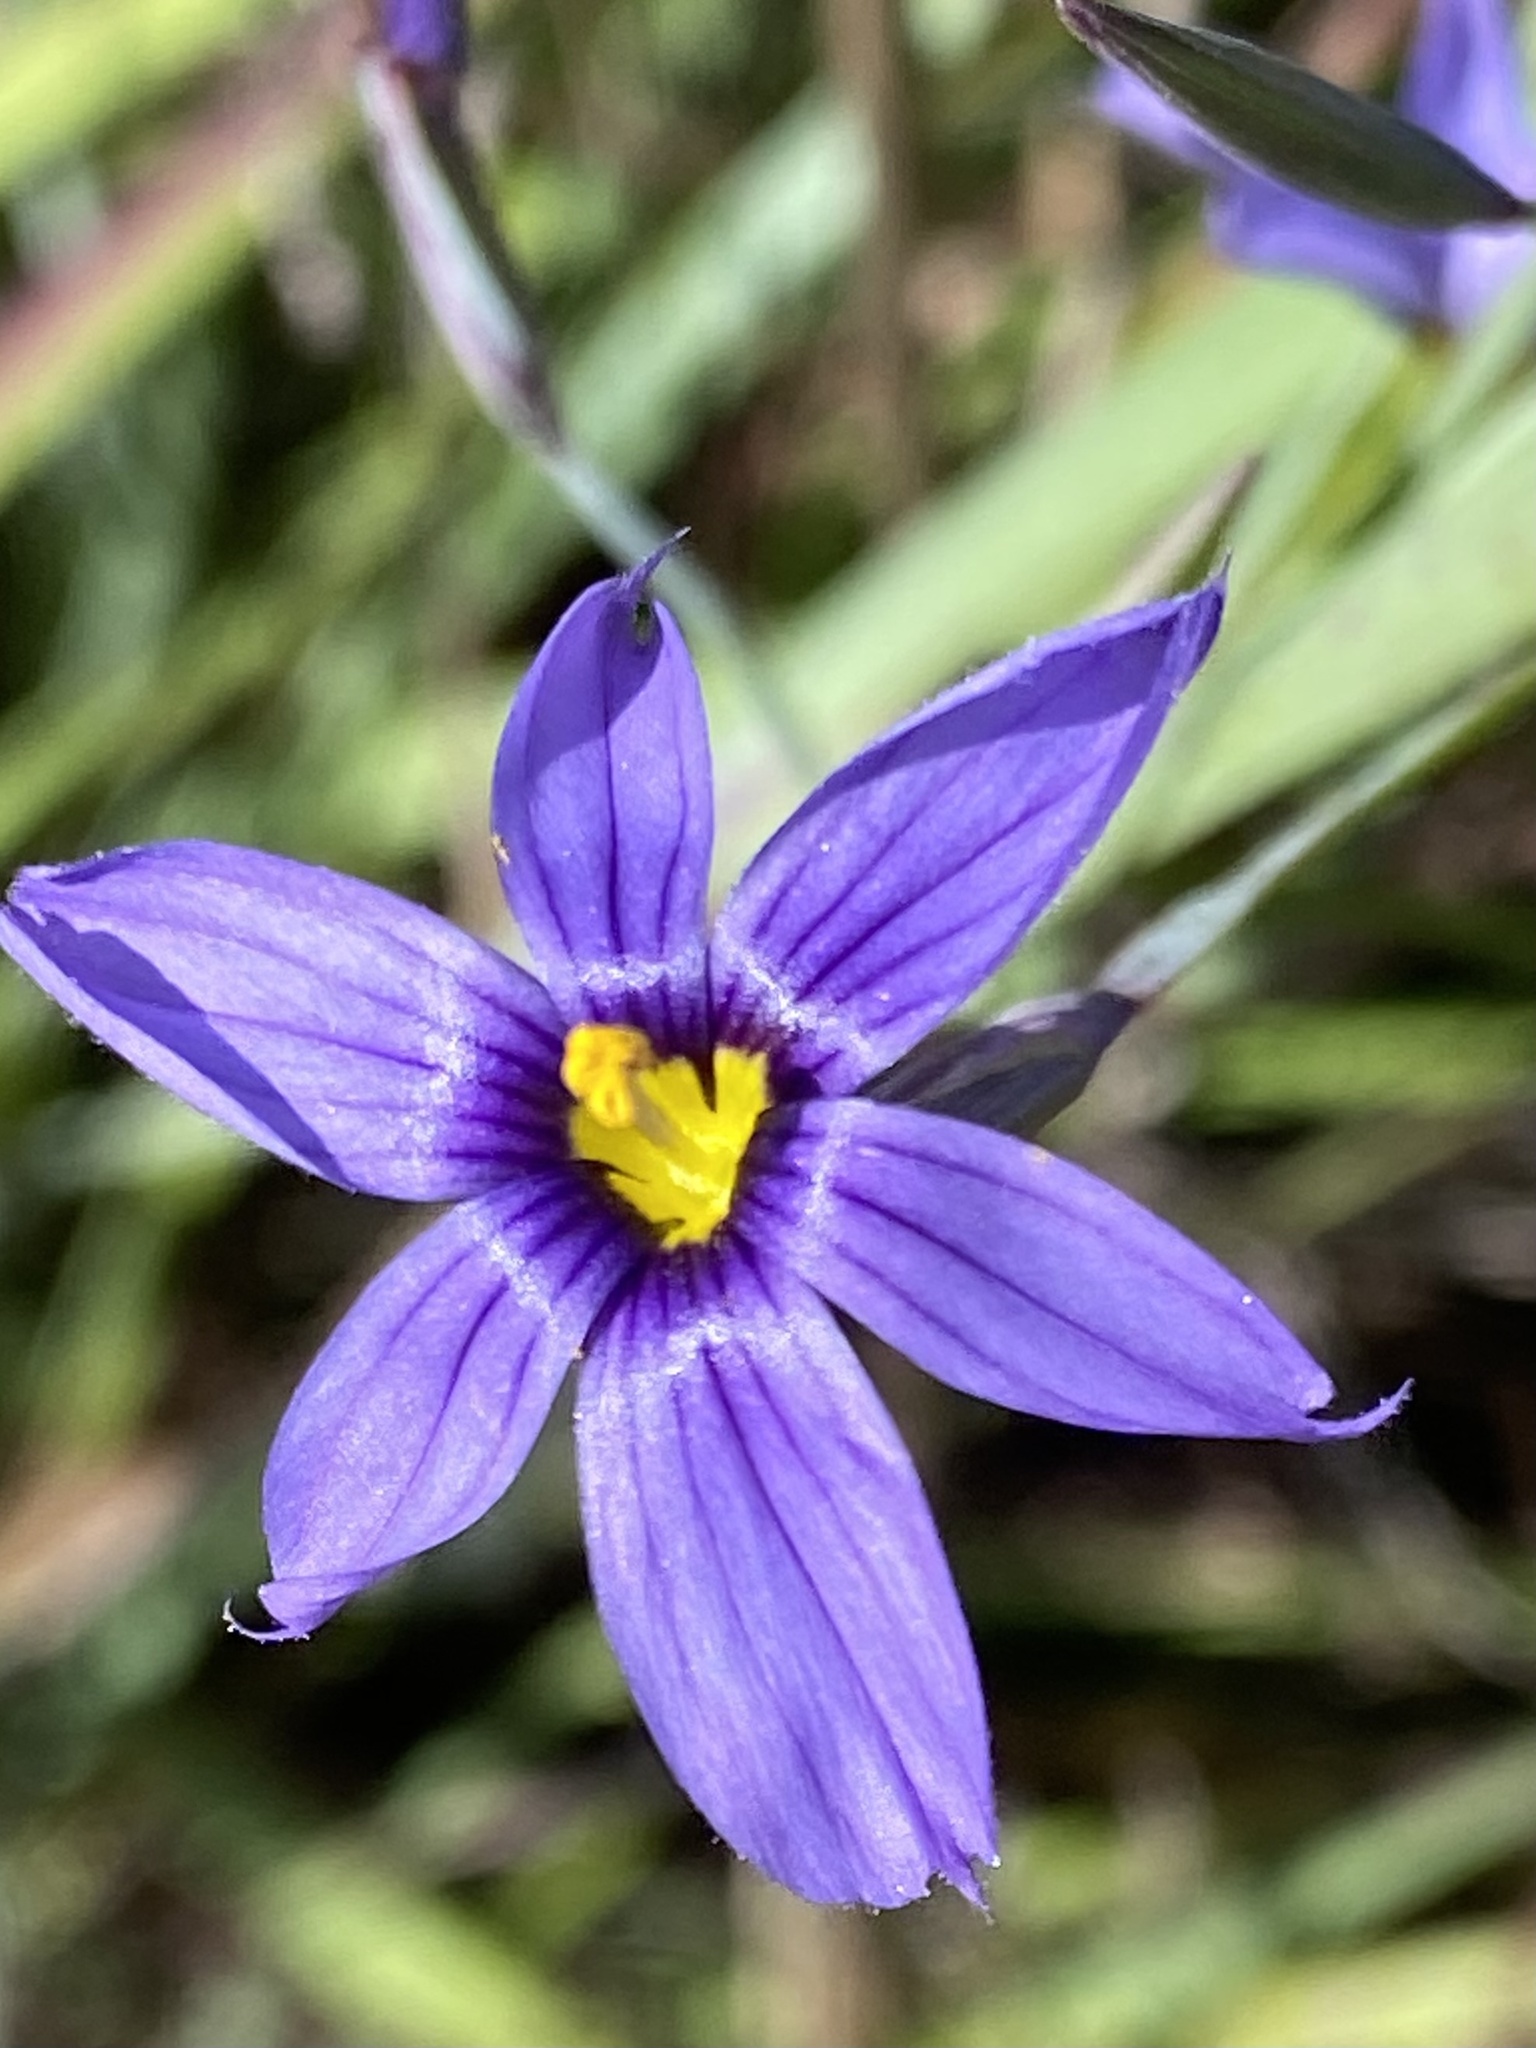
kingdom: Plantae
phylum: Tracheophyta
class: Liliopsida
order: Asparagales
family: Iridaceae
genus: Sisyrinchium
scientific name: Sisyrinchium bellum
